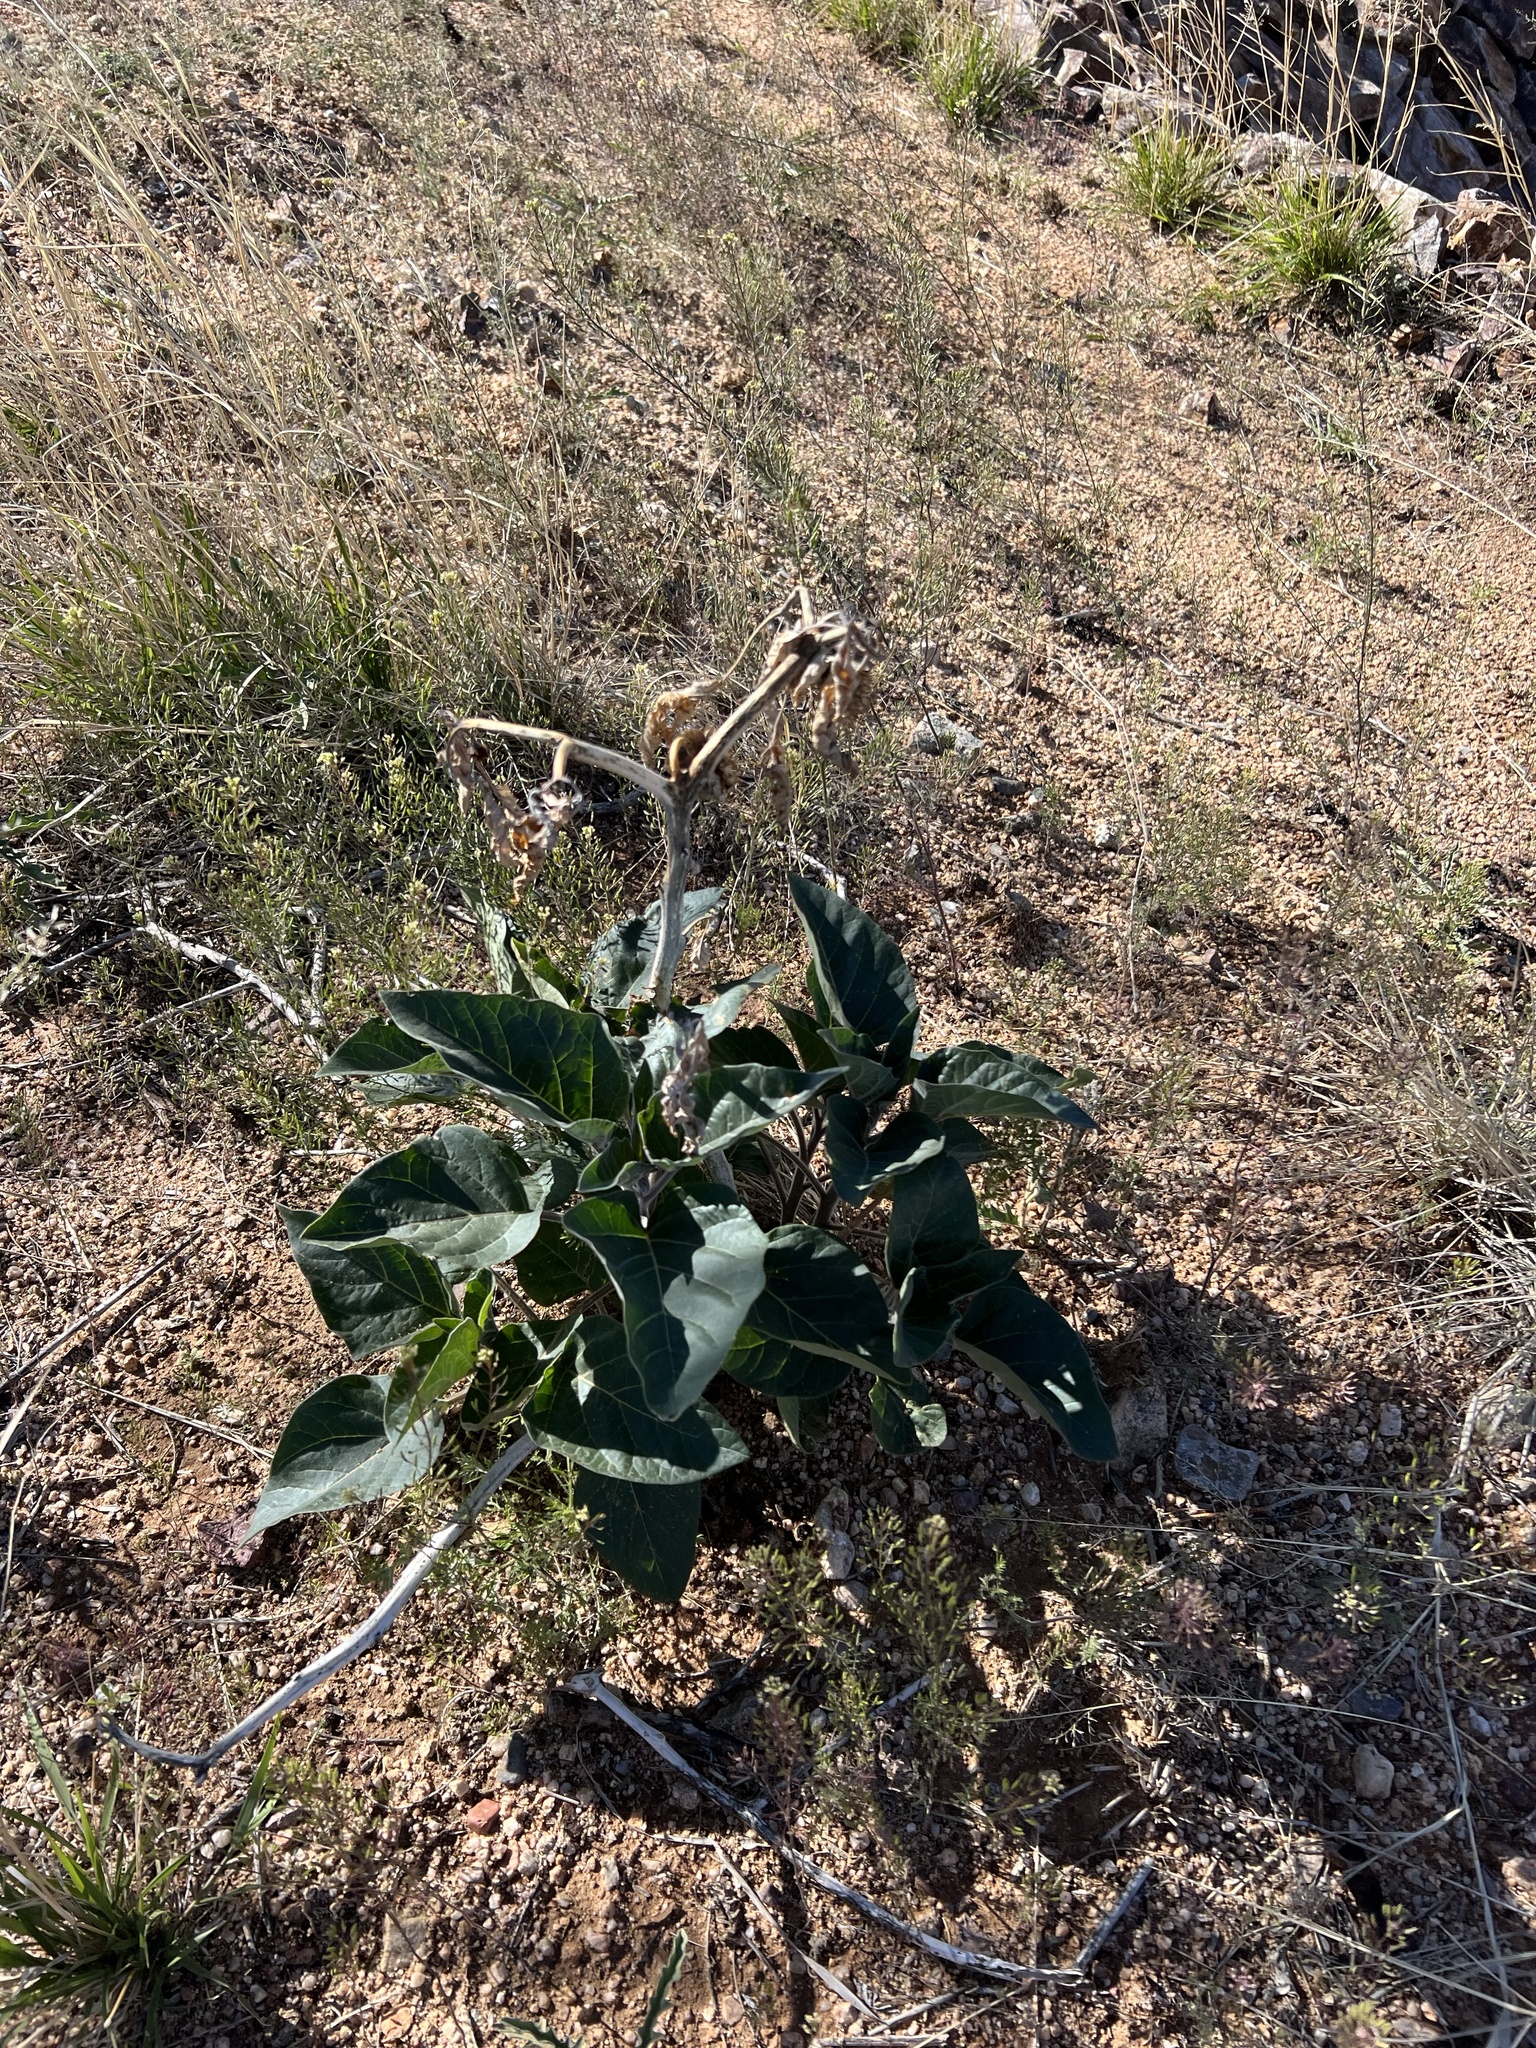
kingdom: Plantae
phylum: Tracheophyta
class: Magnoliopsida
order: Solanales
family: Solanaceae
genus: Datura
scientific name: Datura wrightii
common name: Sacred thorn-apple
